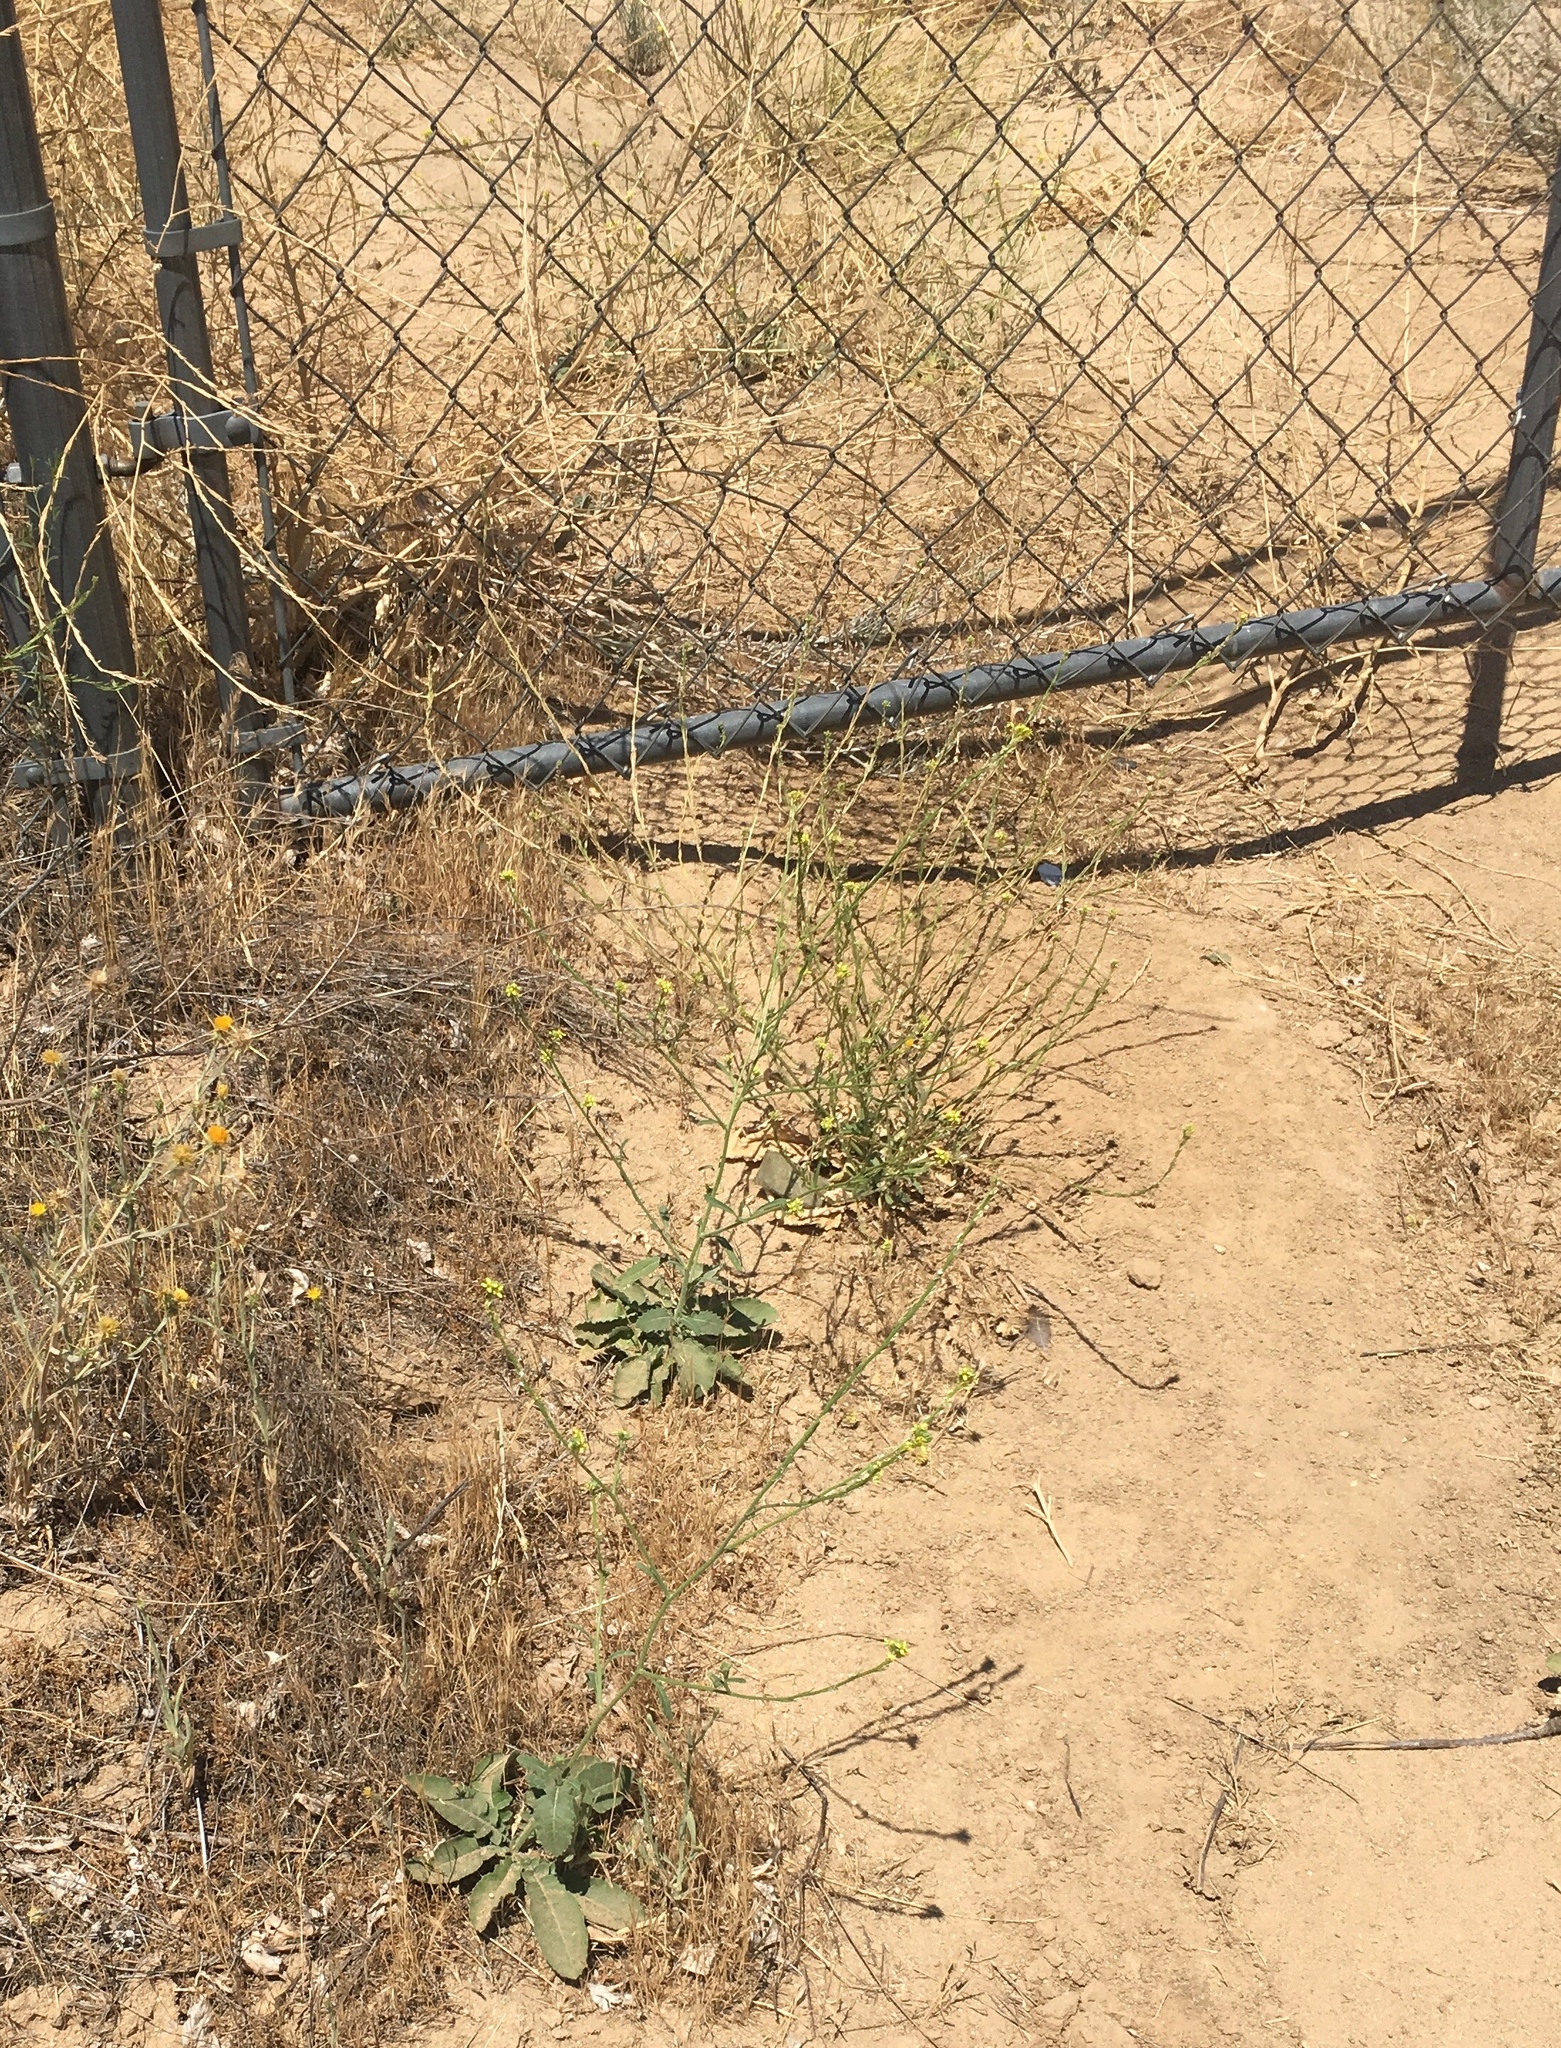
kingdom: Plantae
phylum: Tracheophyta
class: Magnoliopsida
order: Brassicales
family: Brassicaceae
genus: Hirschfeldia
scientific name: Hirschfeldia incana
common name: Hoary mustard
